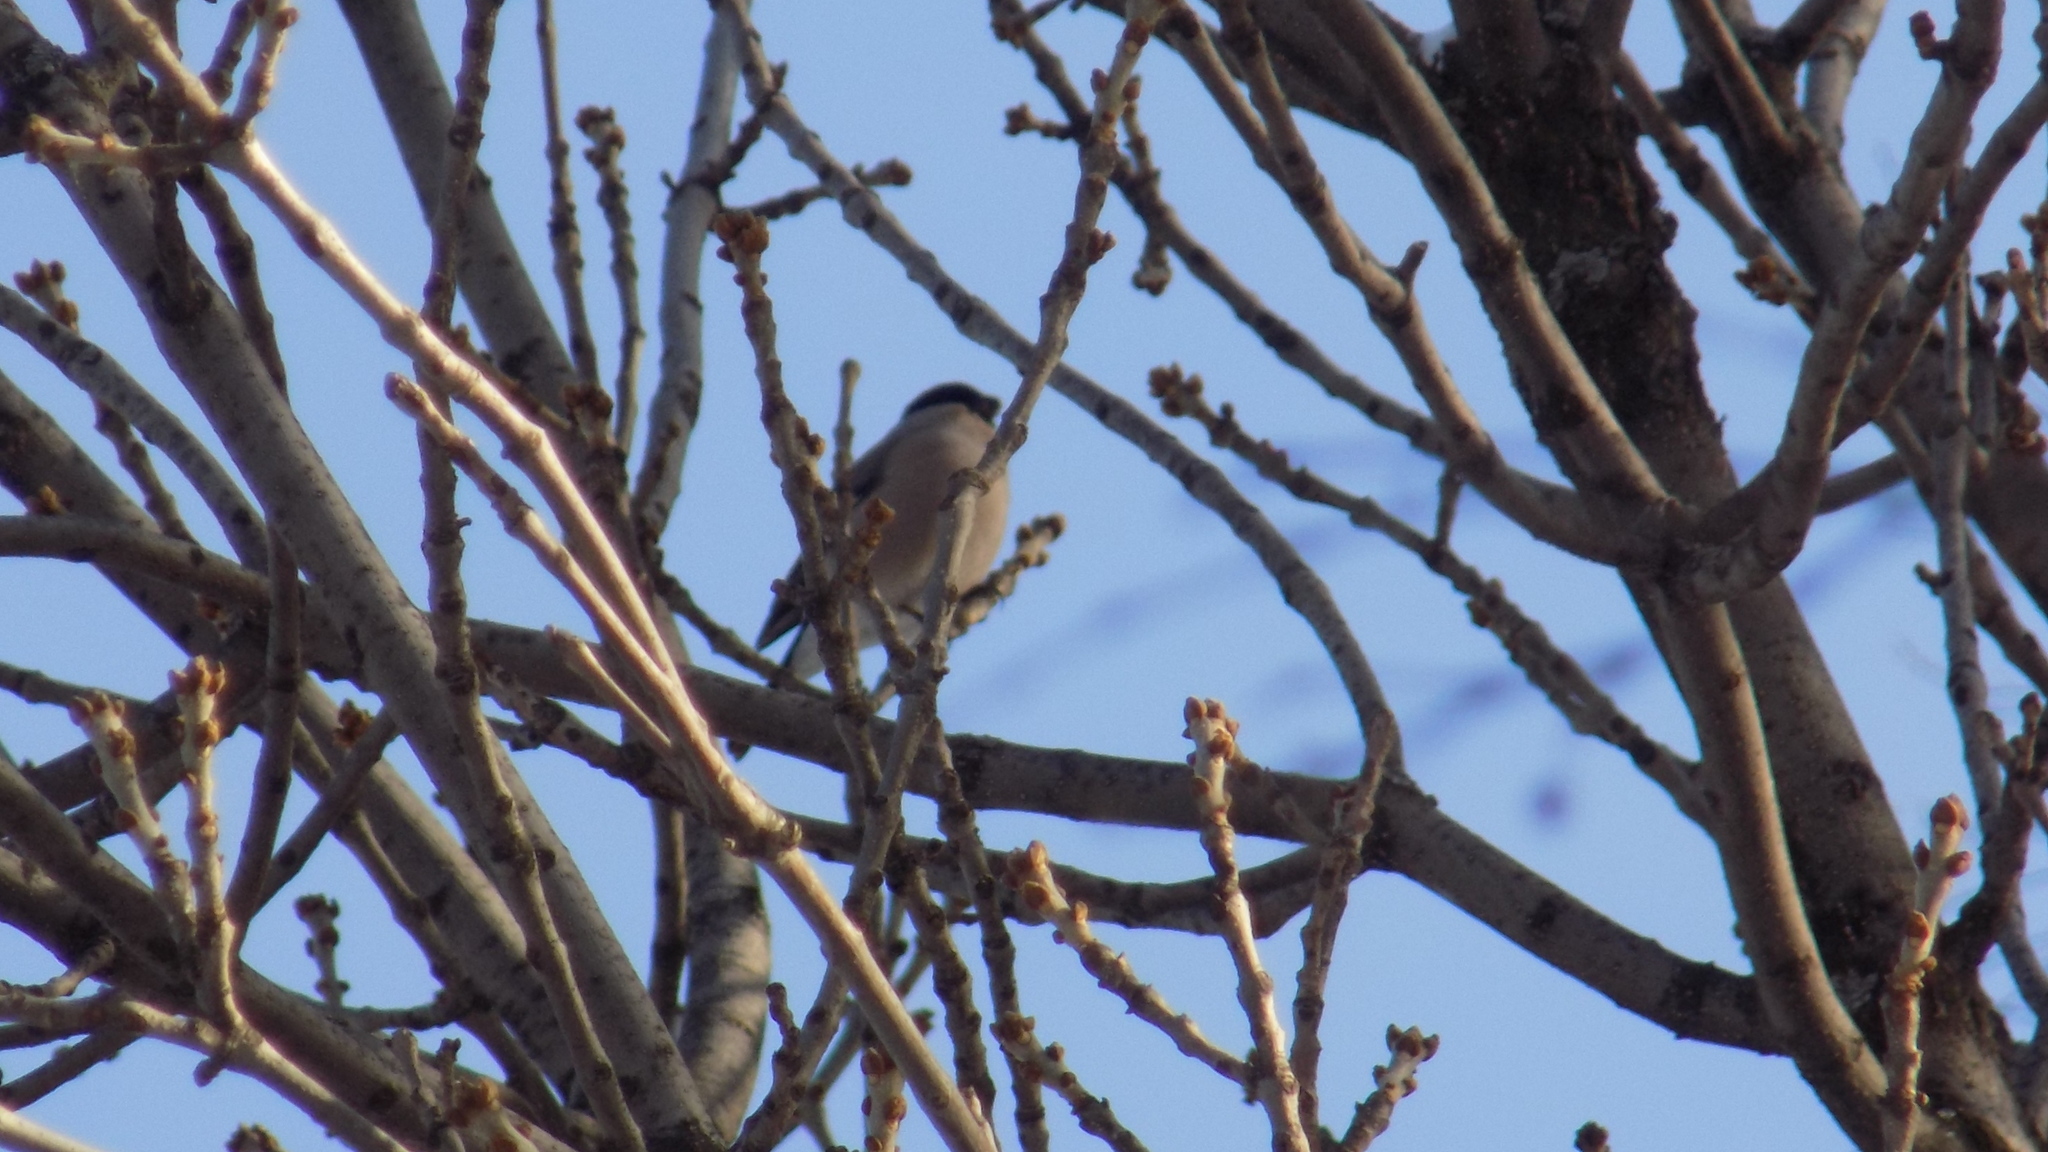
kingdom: Animalia
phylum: Chordata
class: Aves
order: Passeriformes
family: Fringillidae
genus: Pyrrhula
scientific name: Pyrrhula pyrrhula
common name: Eurasian bullfinch
